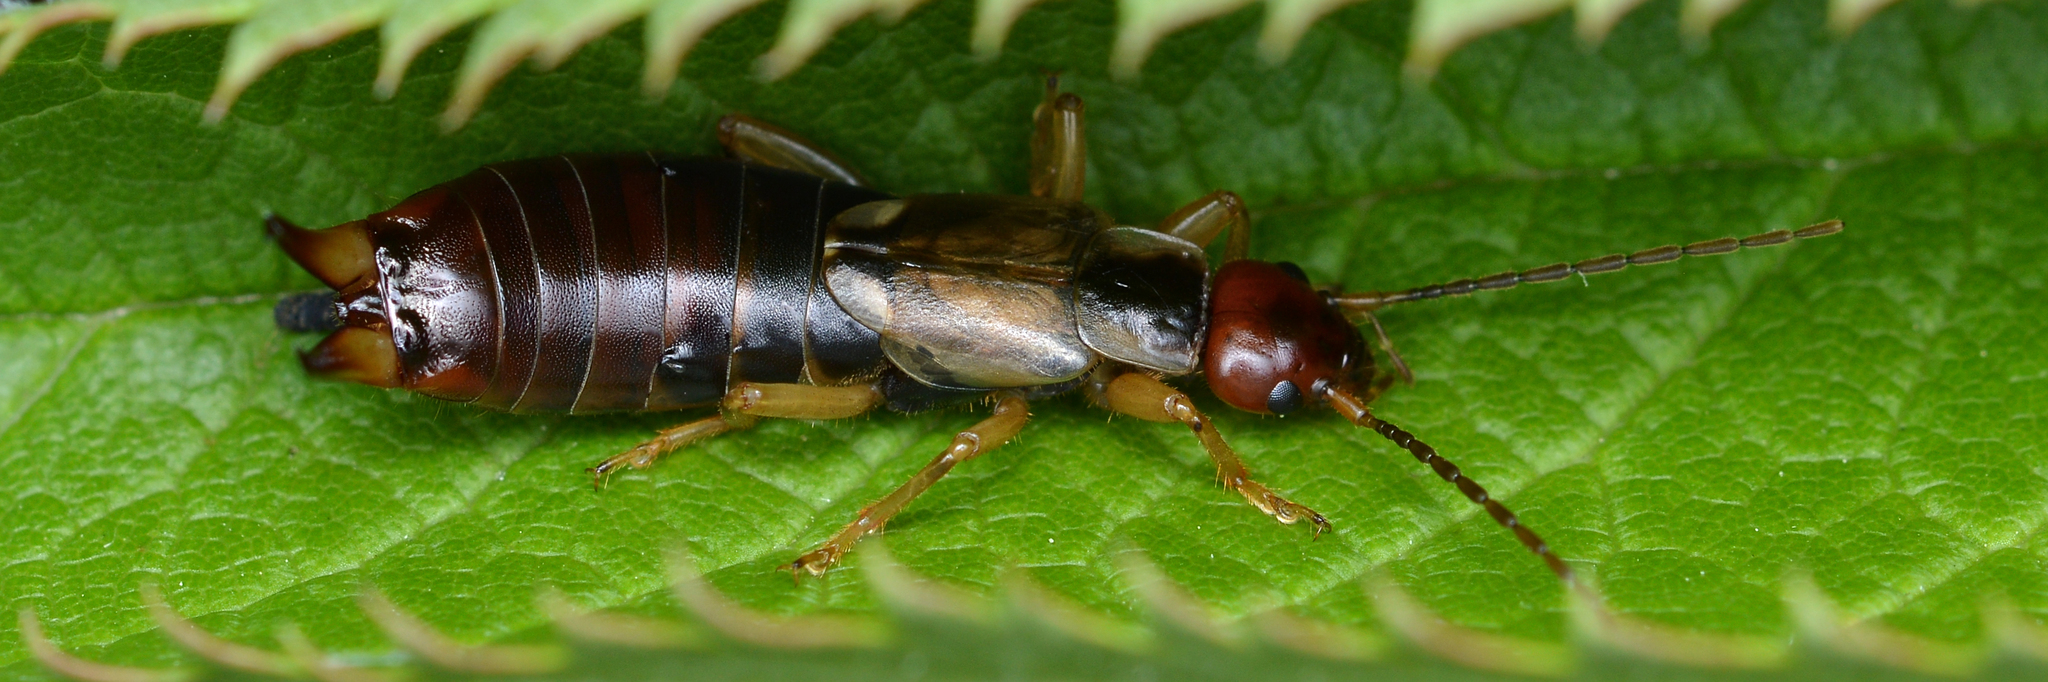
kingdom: Animalia
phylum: Arthropoda
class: Insecta
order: Dermaptera
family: Forficulidae
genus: Forficula
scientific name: Forficula
